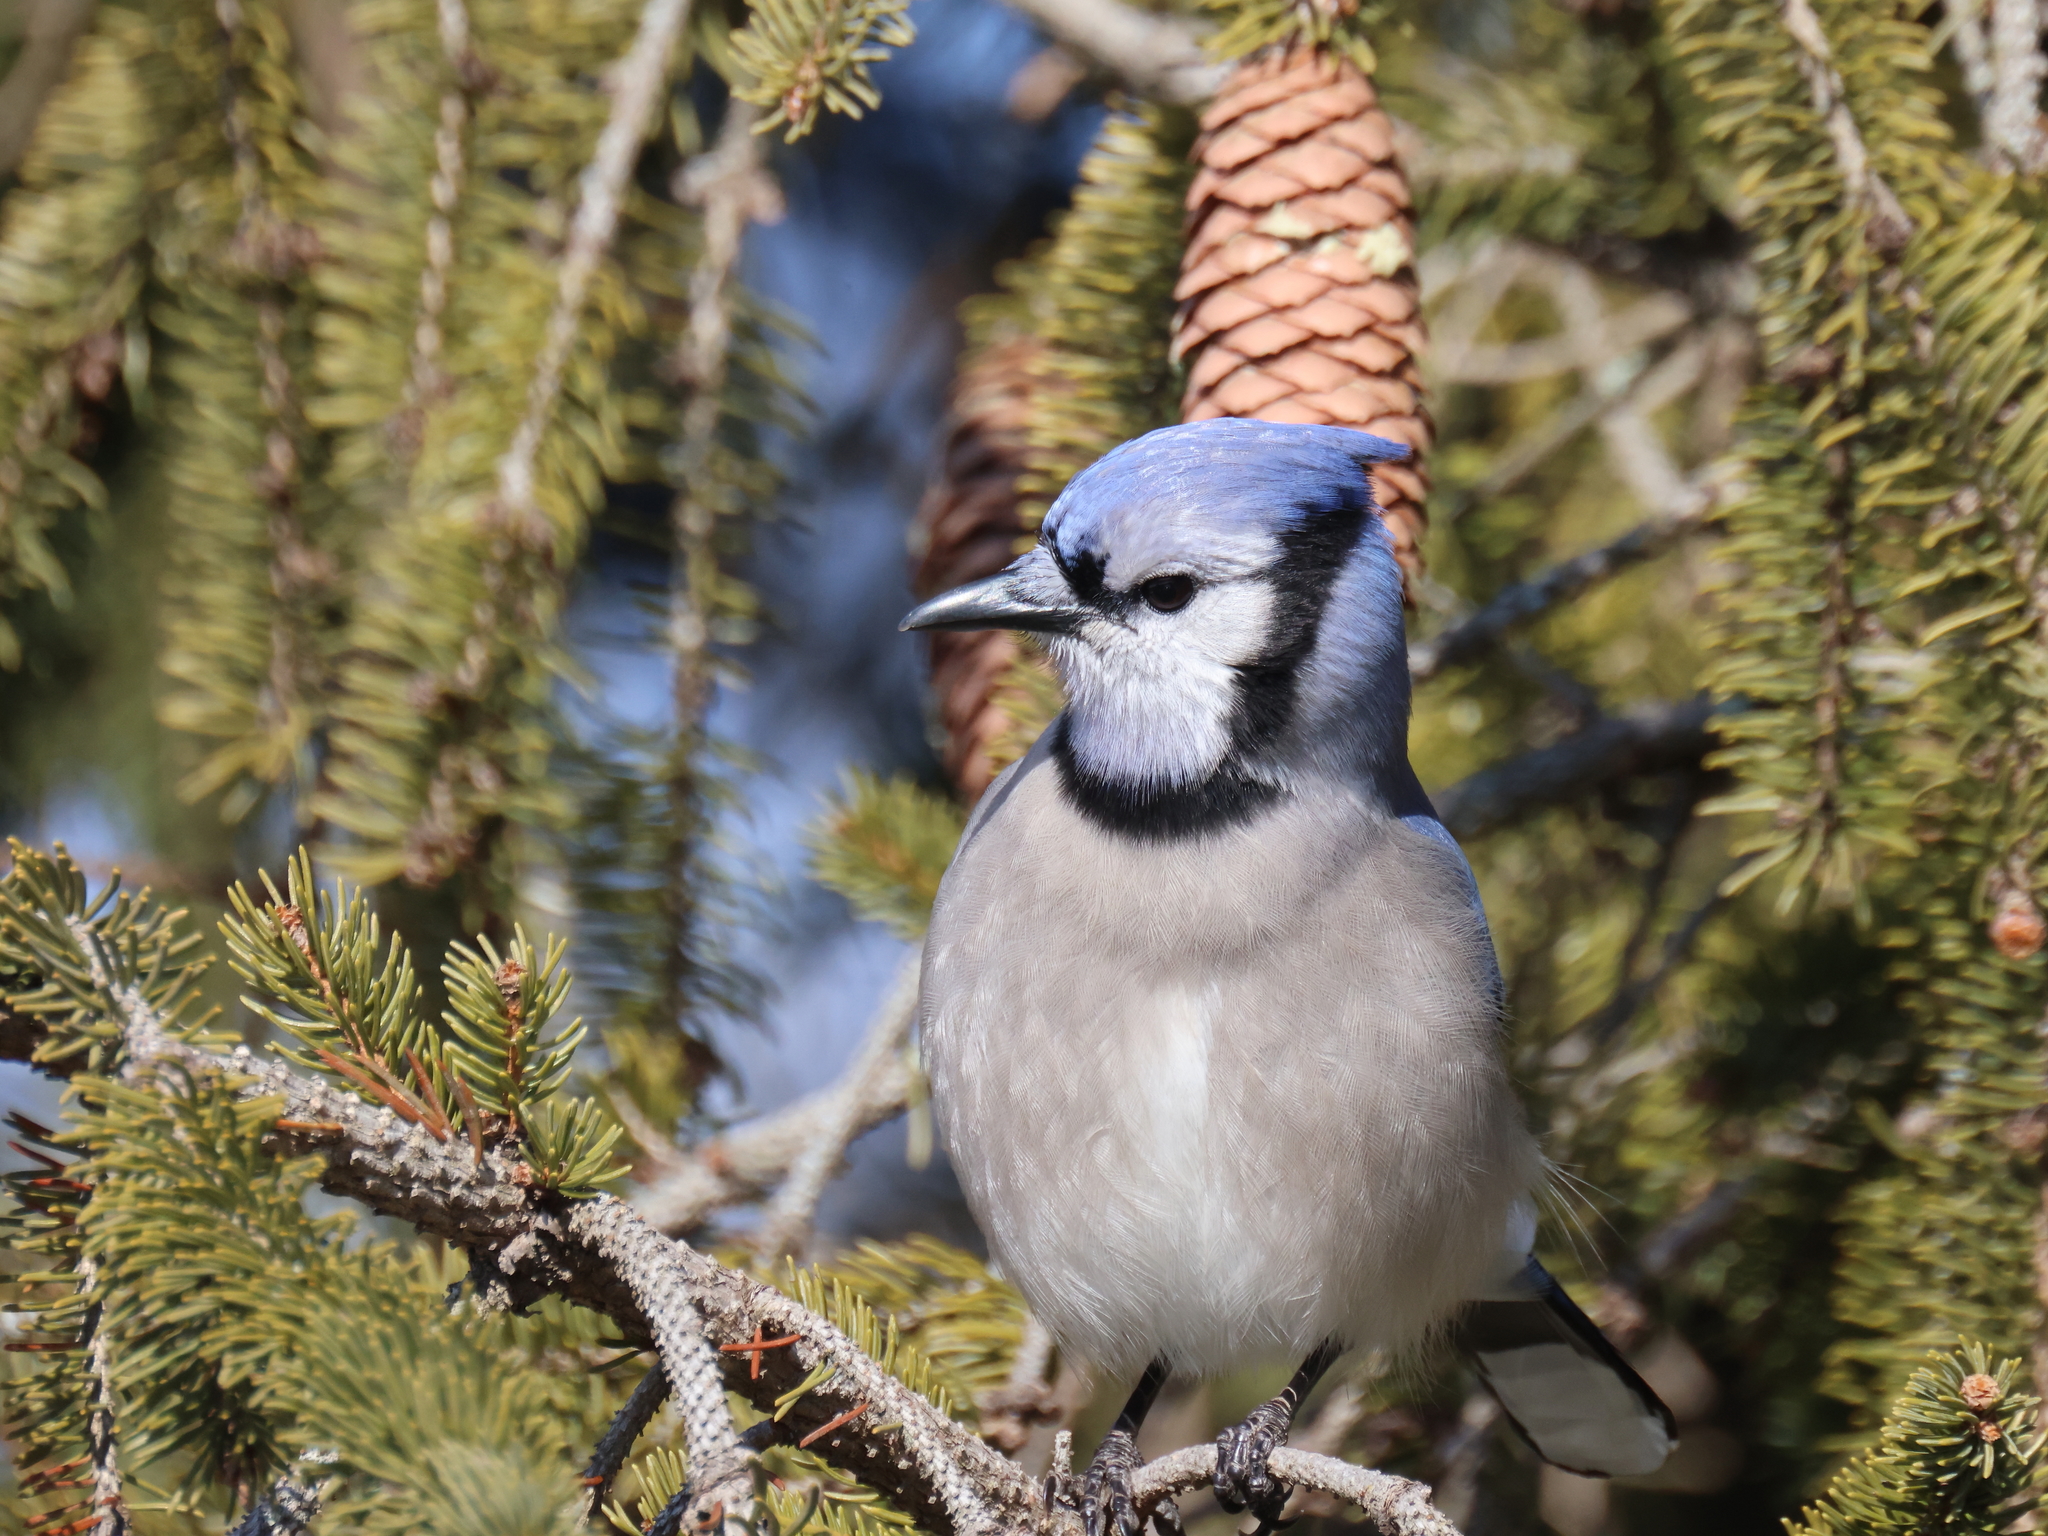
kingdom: Animalia
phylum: Chordata
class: Aves
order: Passeriformes
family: Corvidae
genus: Cyanocitta
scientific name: Cyanocitta cristata
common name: Blue jay
